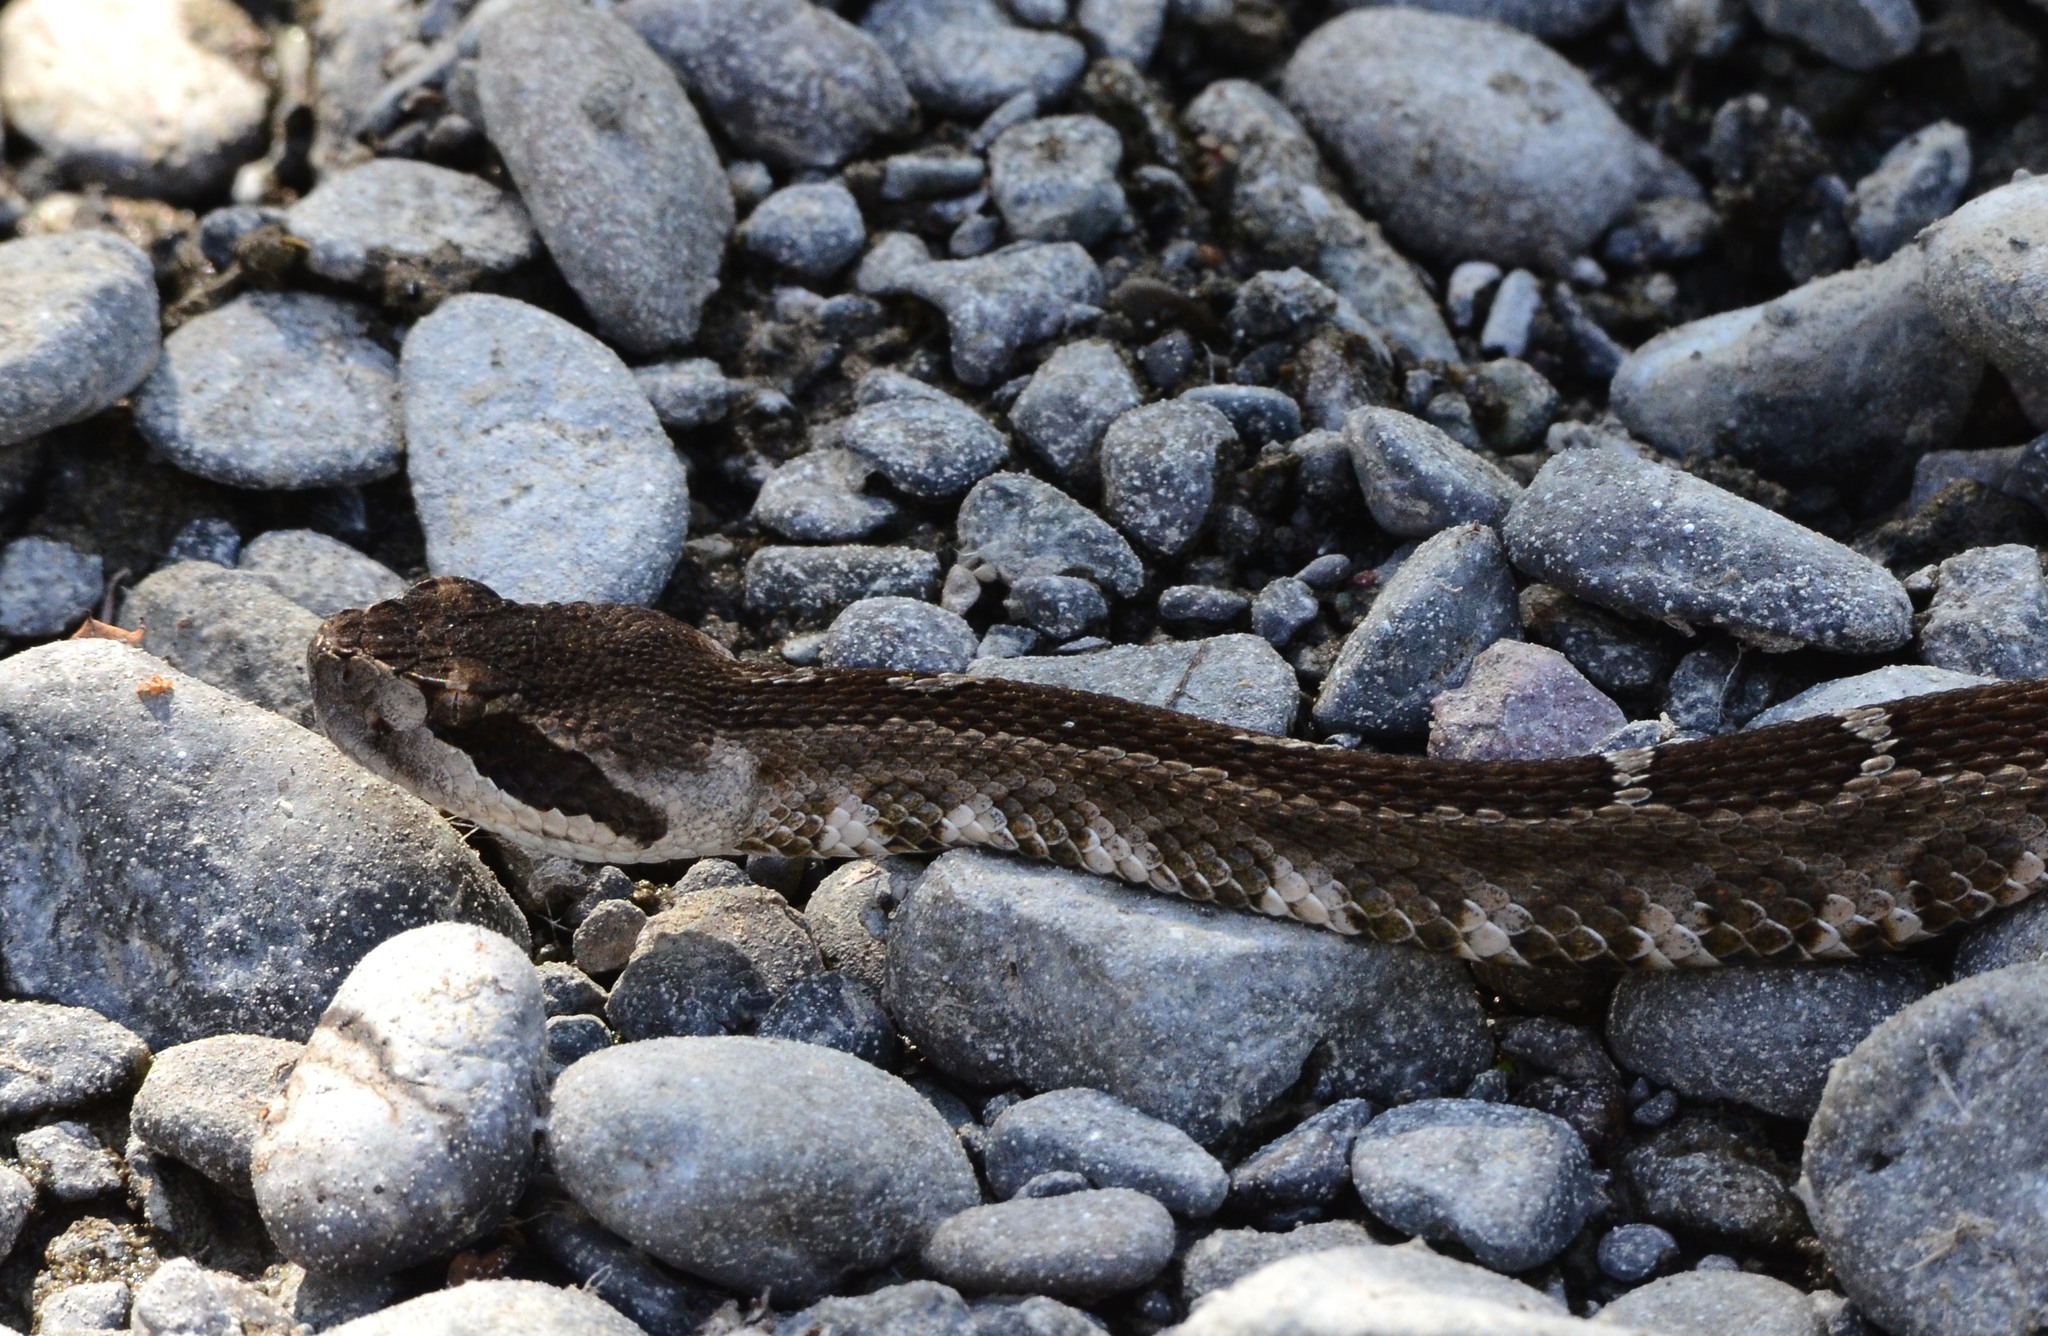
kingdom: Animalia
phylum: Chordata
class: Squamata
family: Viperidae
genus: Crotalus
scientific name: Crotalus oreganus
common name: Abyssus
